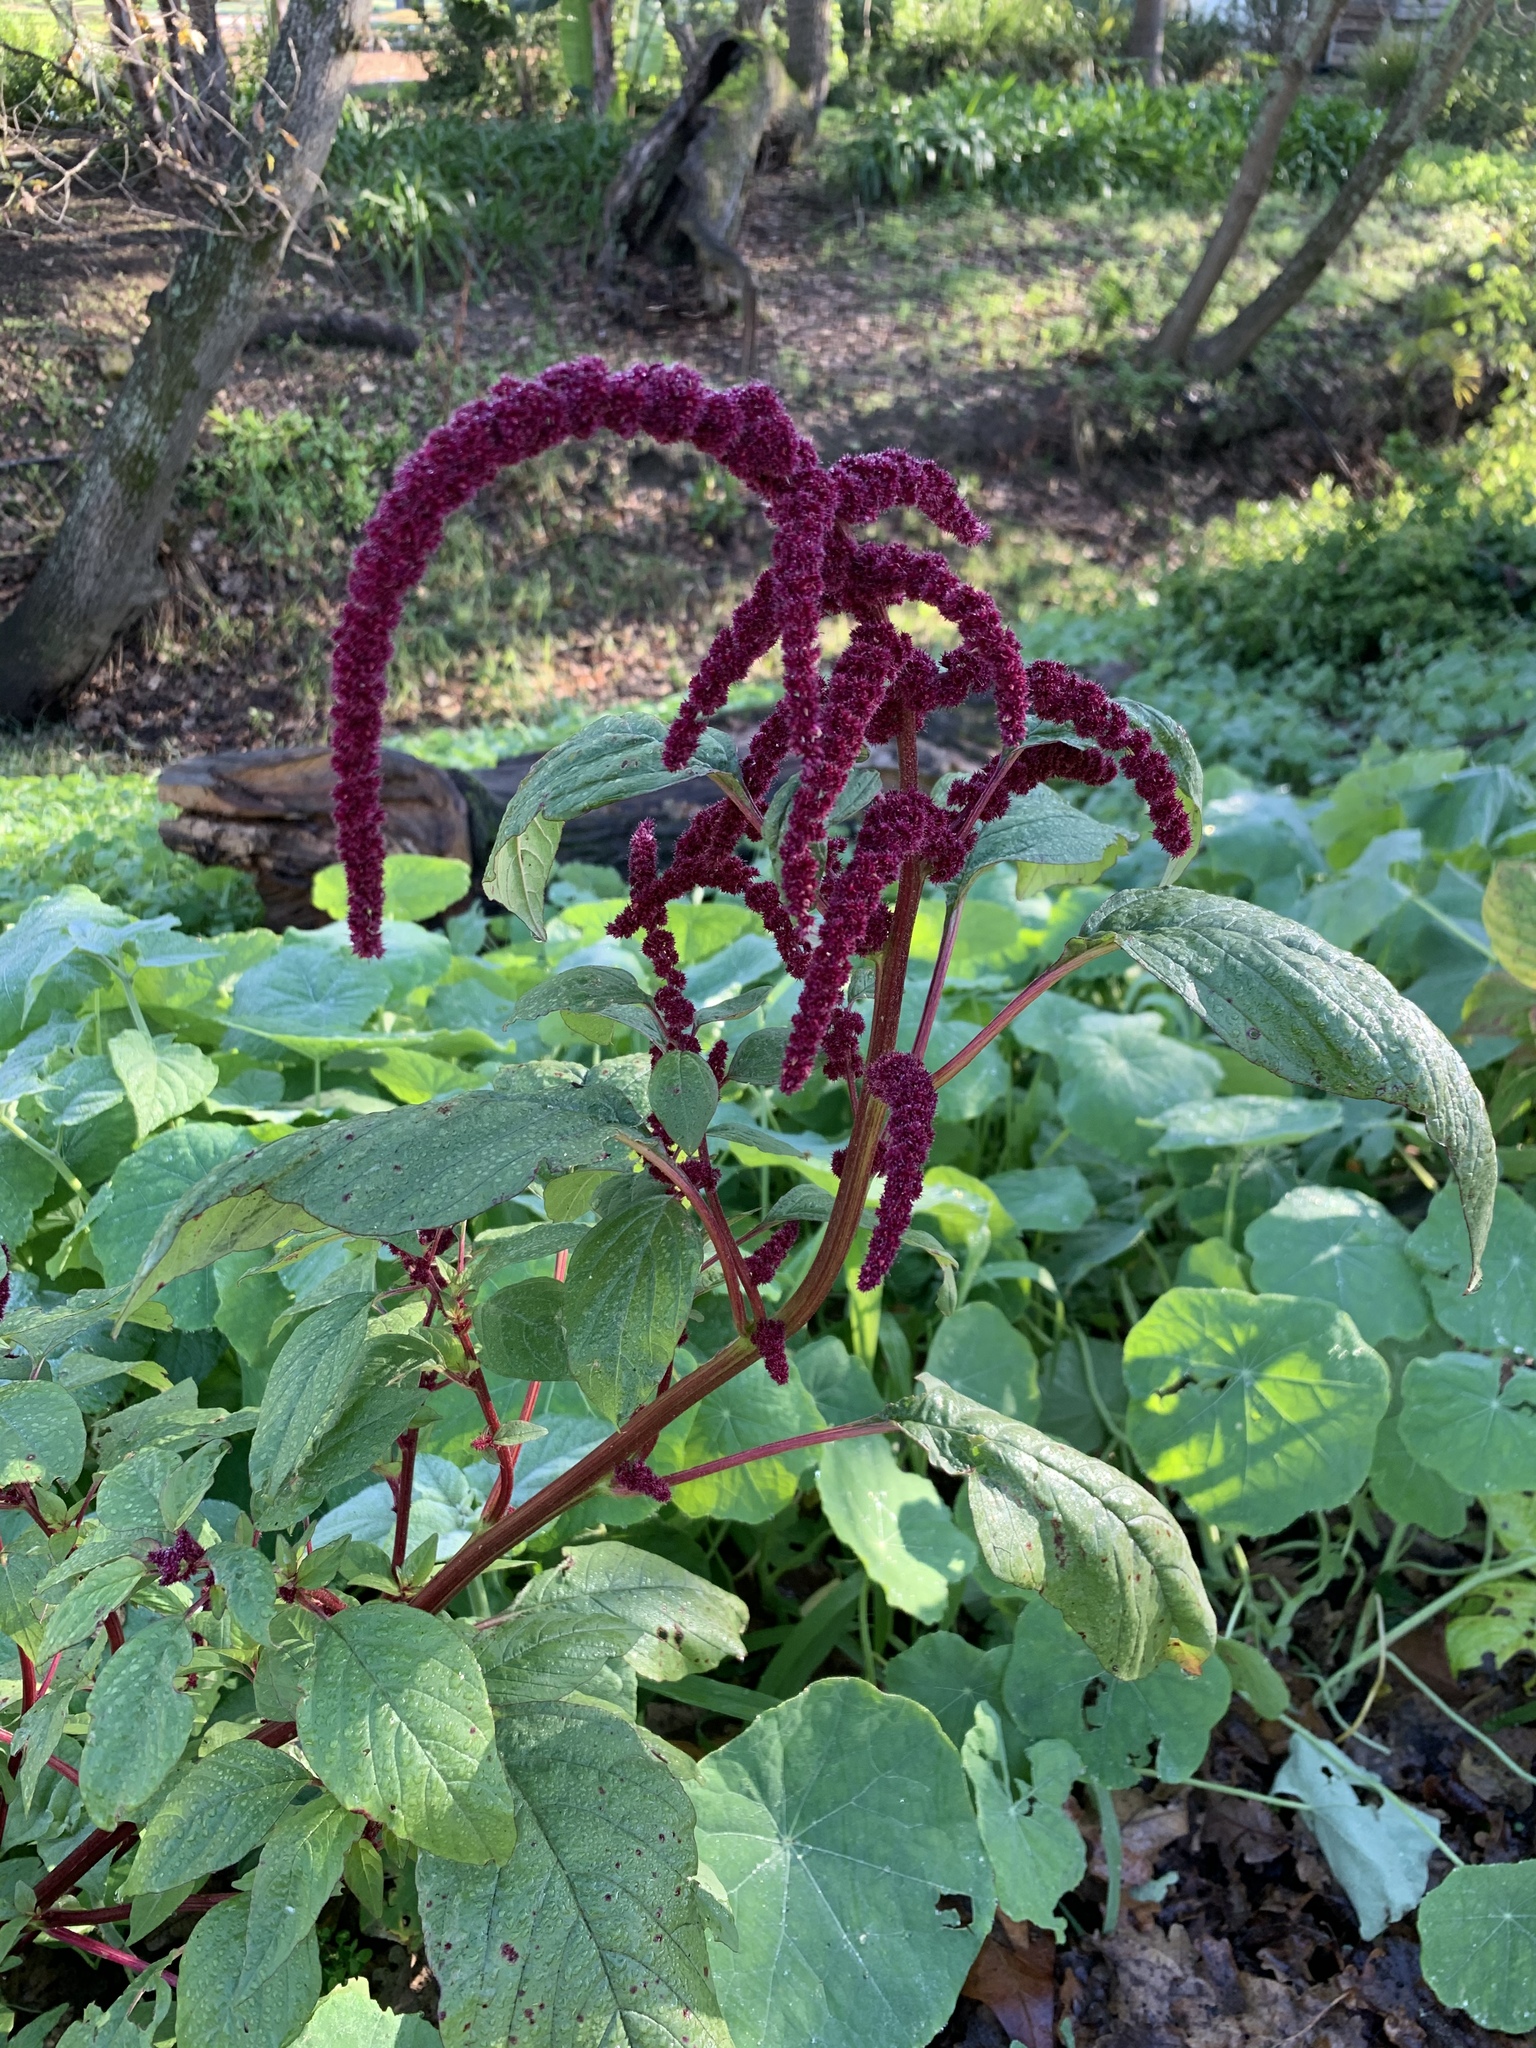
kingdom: Plantae
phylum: Tracheophyta
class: Magnoliopsida
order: Caryophyllales
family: Amaranthaceae
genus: Amaranthus
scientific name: Amaranthus cruentus
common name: Purple amaranth
